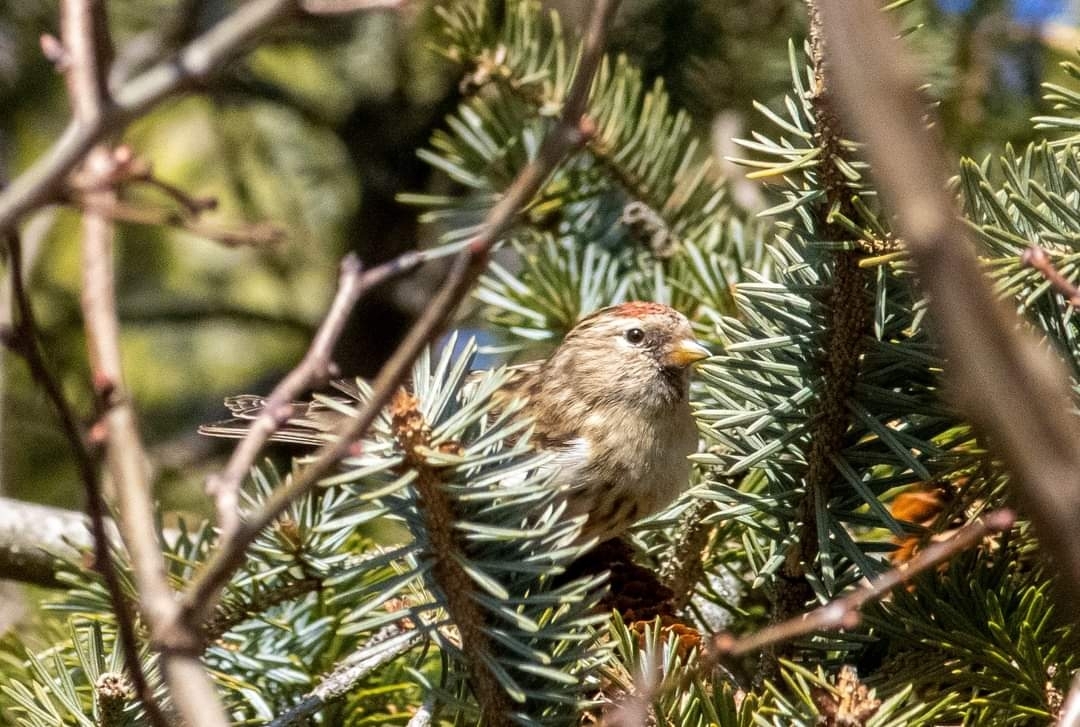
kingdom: Animalia
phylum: Chordata
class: Aves
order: Passeriformes
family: Fringillidae
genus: Acanthis
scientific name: Acanthis flammea
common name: Common redpoll
